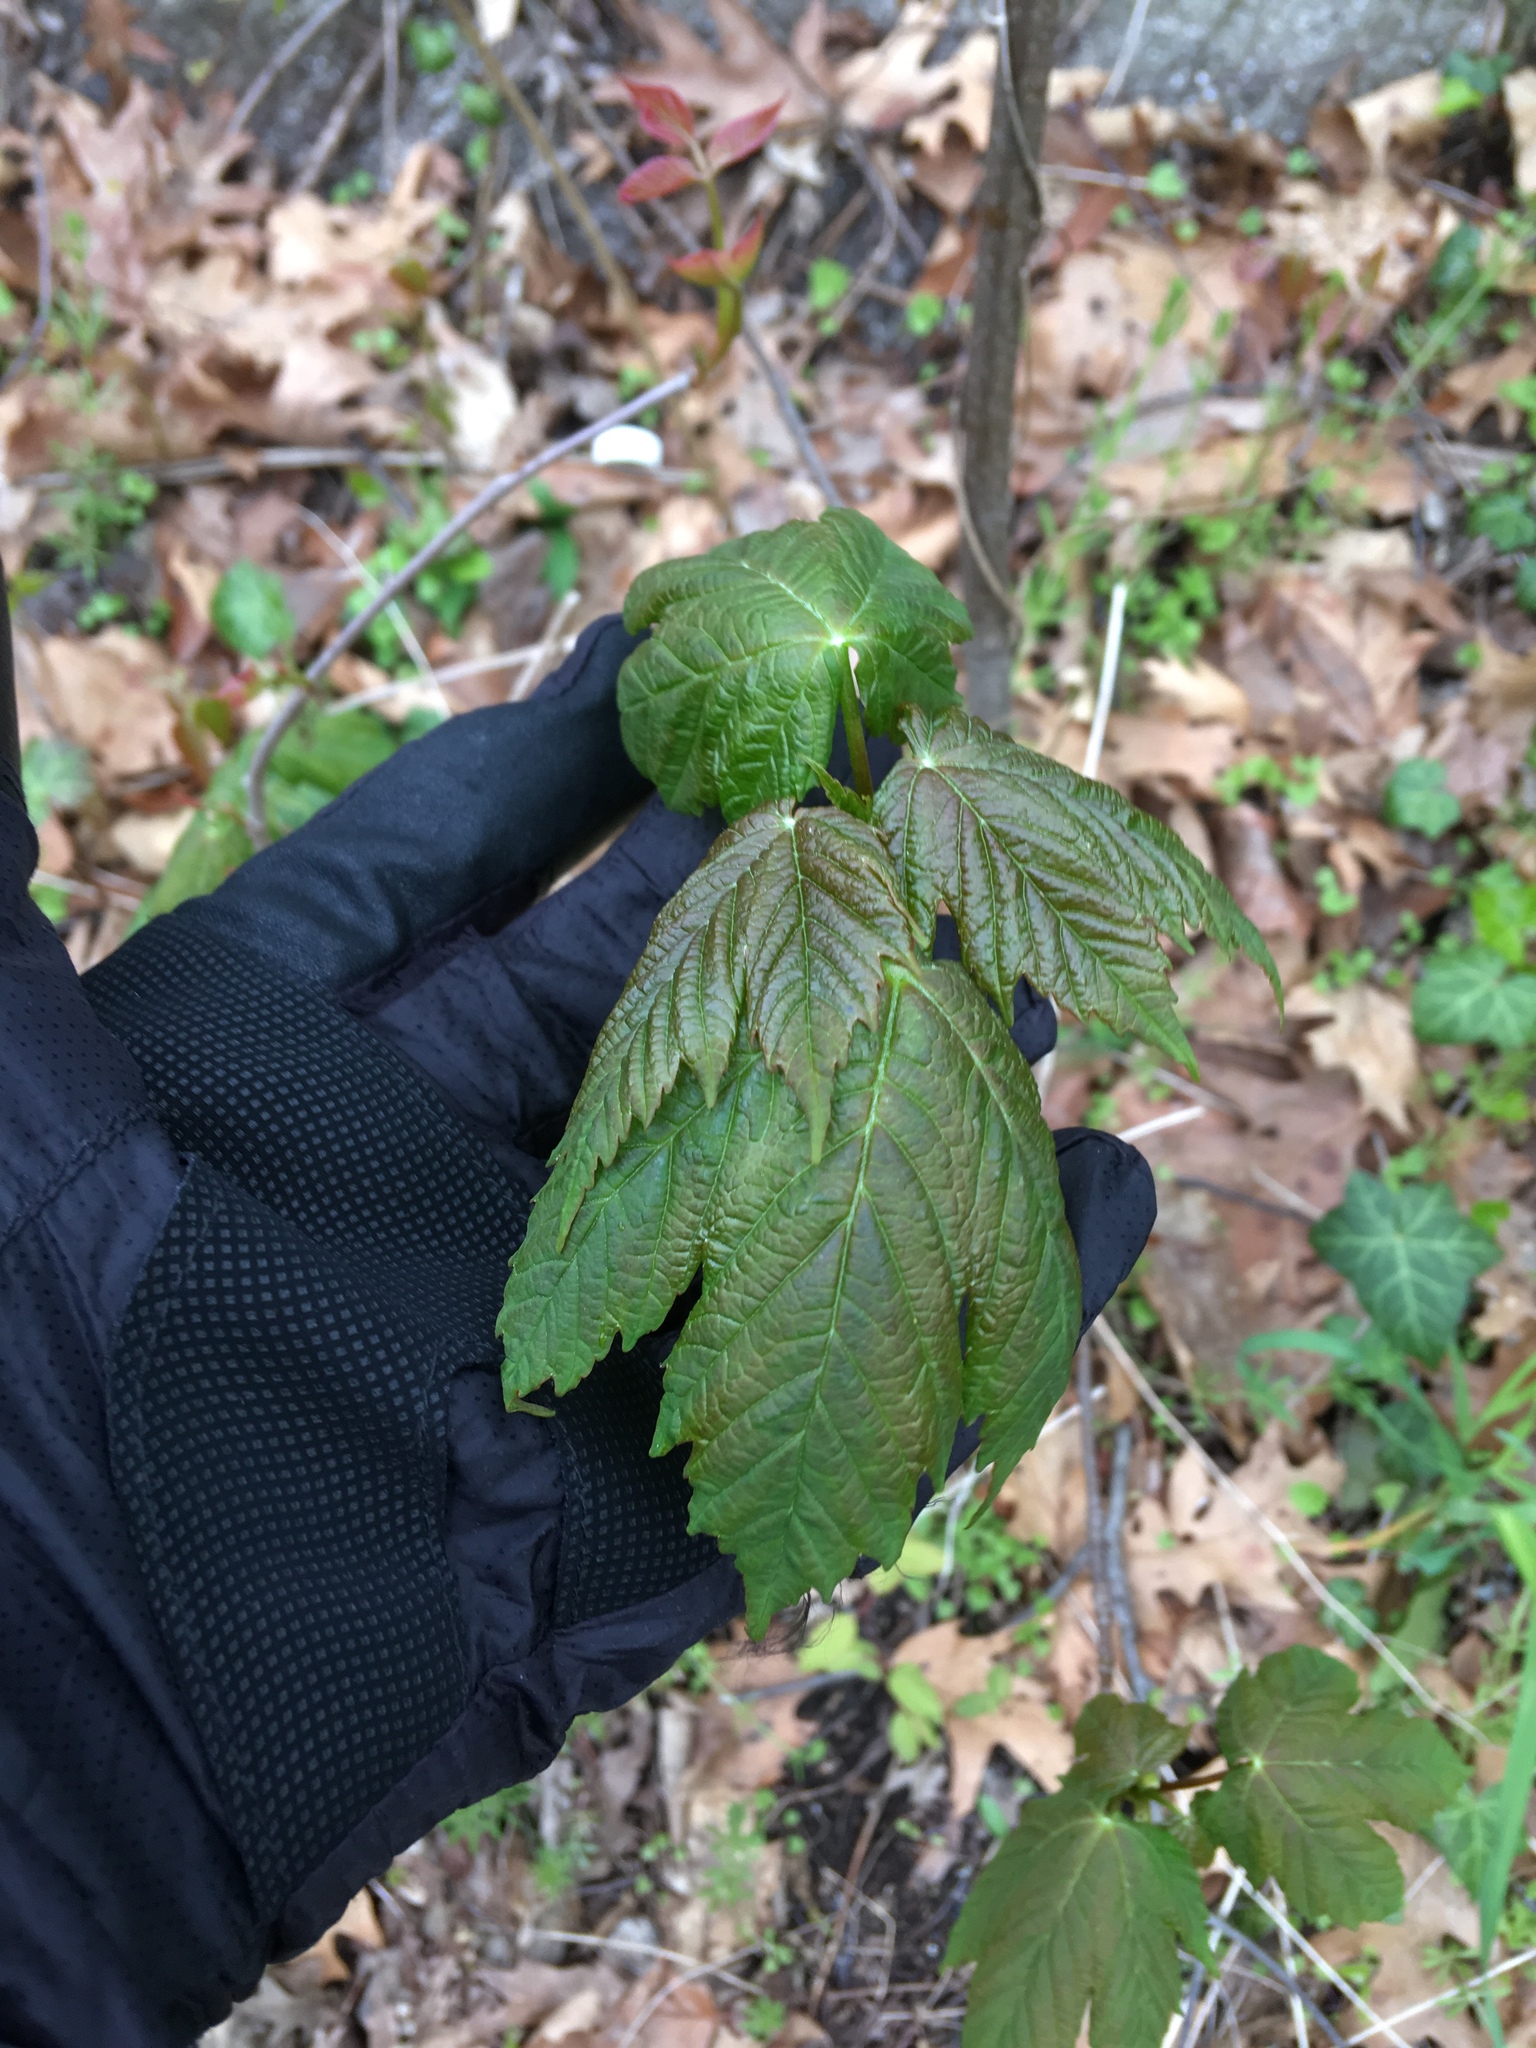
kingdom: Plantae
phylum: Tracheophyta
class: Magnoliopsida
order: Sapindales
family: Sapindaceae
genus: Acer
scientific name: Acer pseudoplatanus
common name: Sycamore
